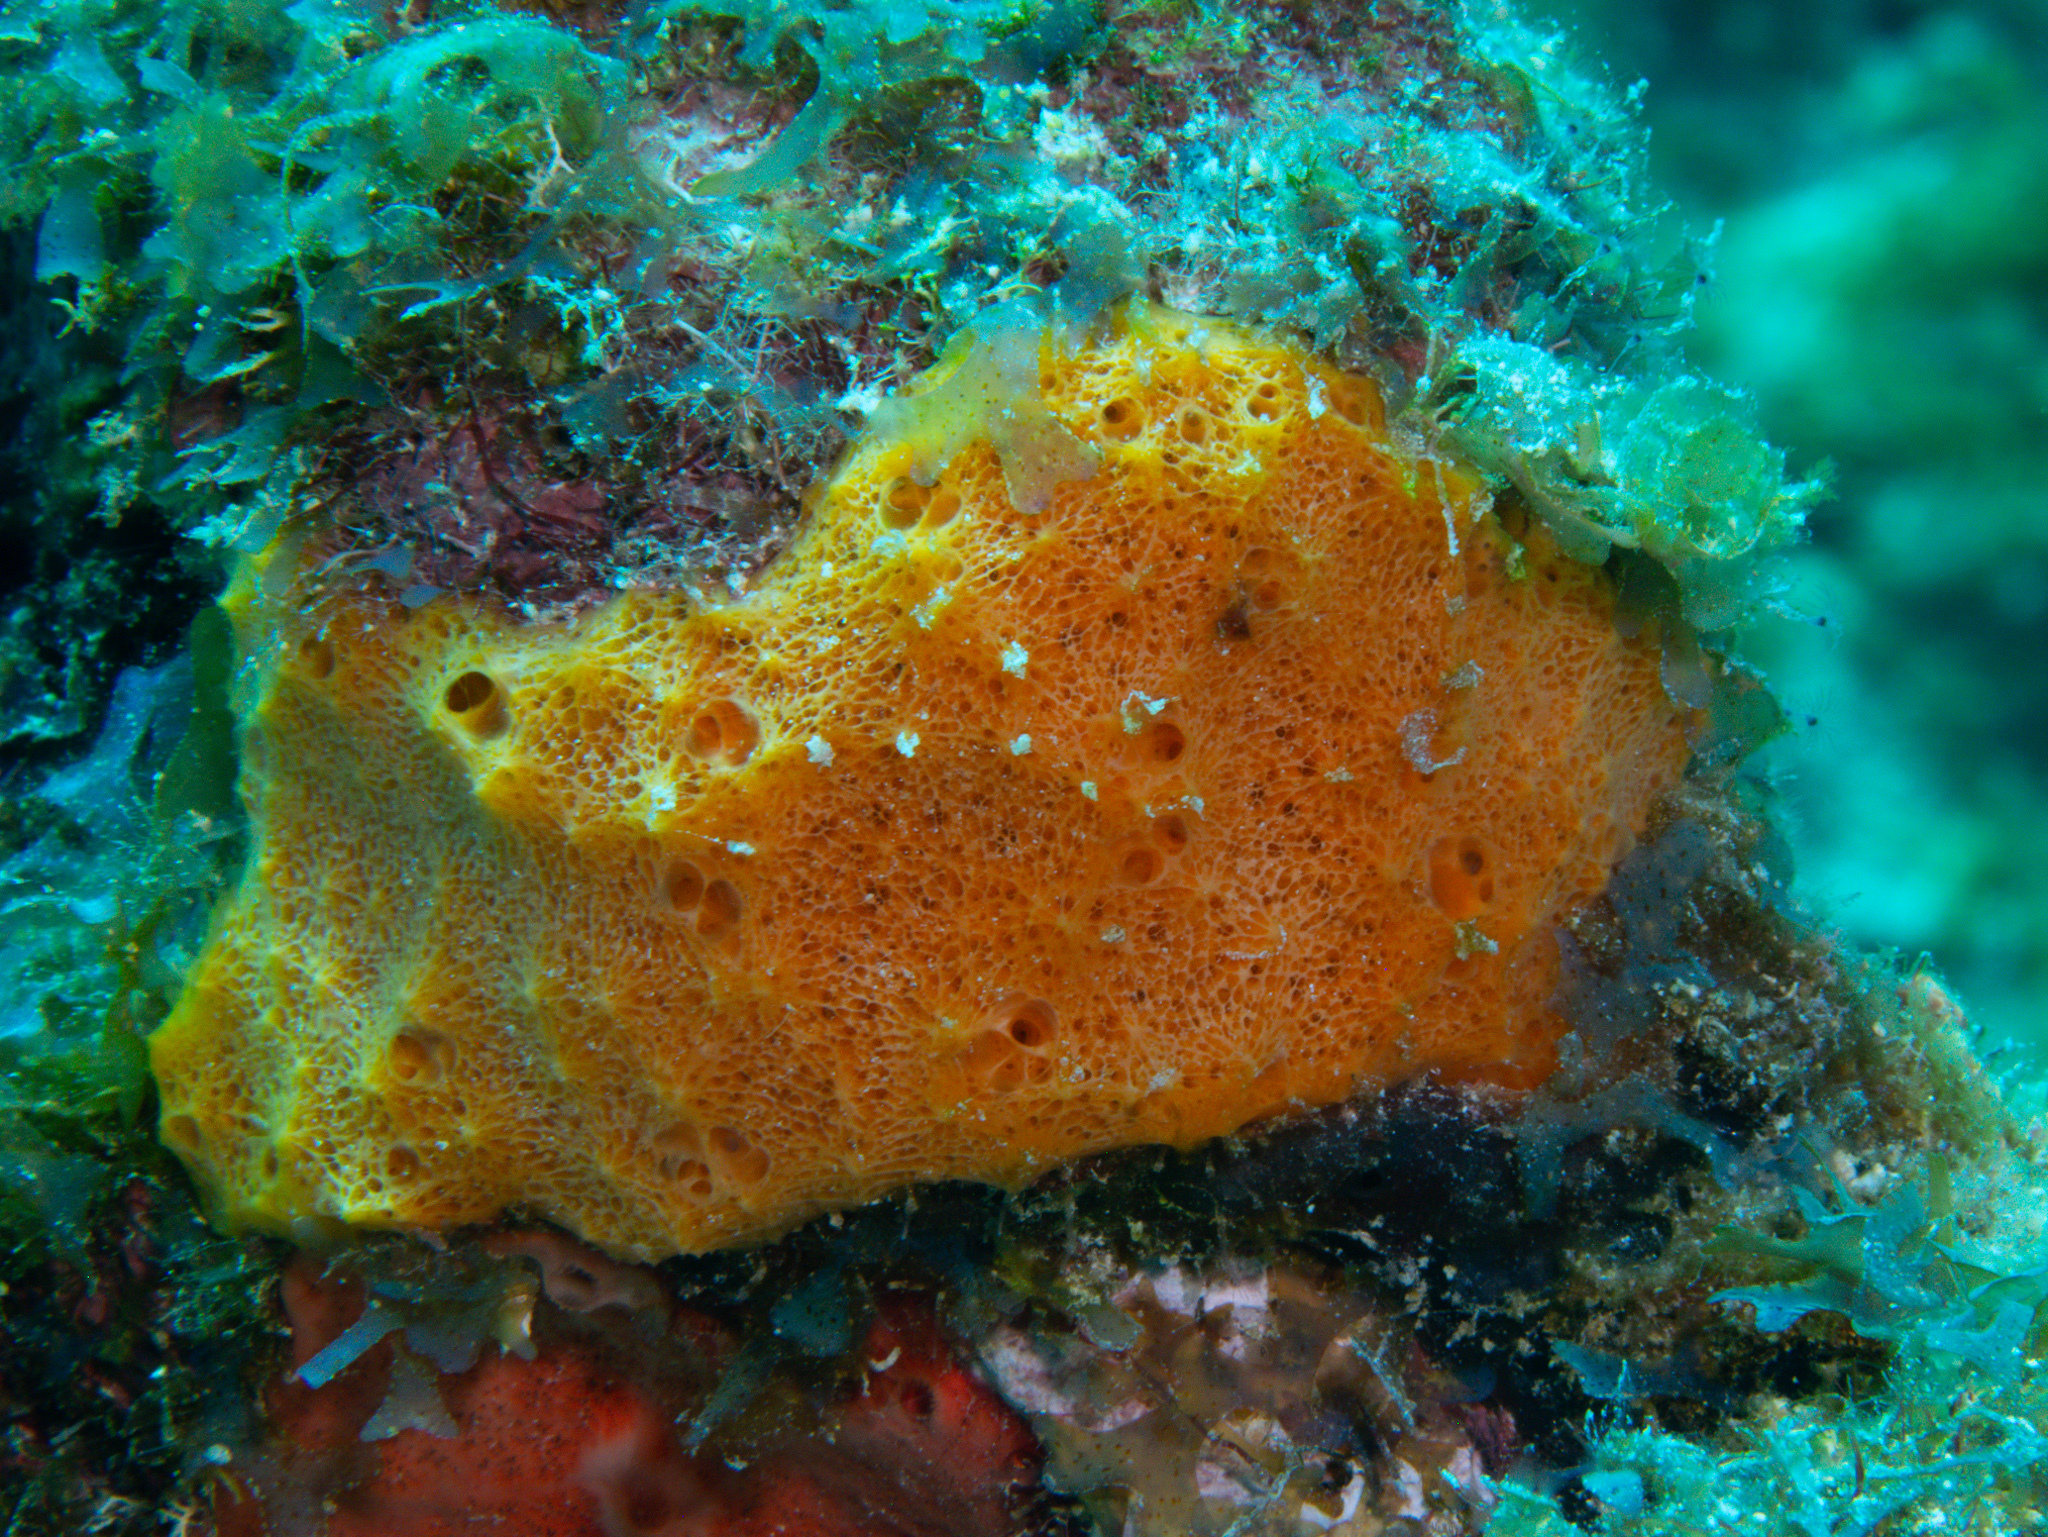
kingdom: Animalia
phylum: Porifera
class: Demospongiae
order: Scopalinida
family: Scopalinidae
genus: Scopalina
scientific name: Scopalina ruetzleri
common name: Orange lumpy encrusting sponge
